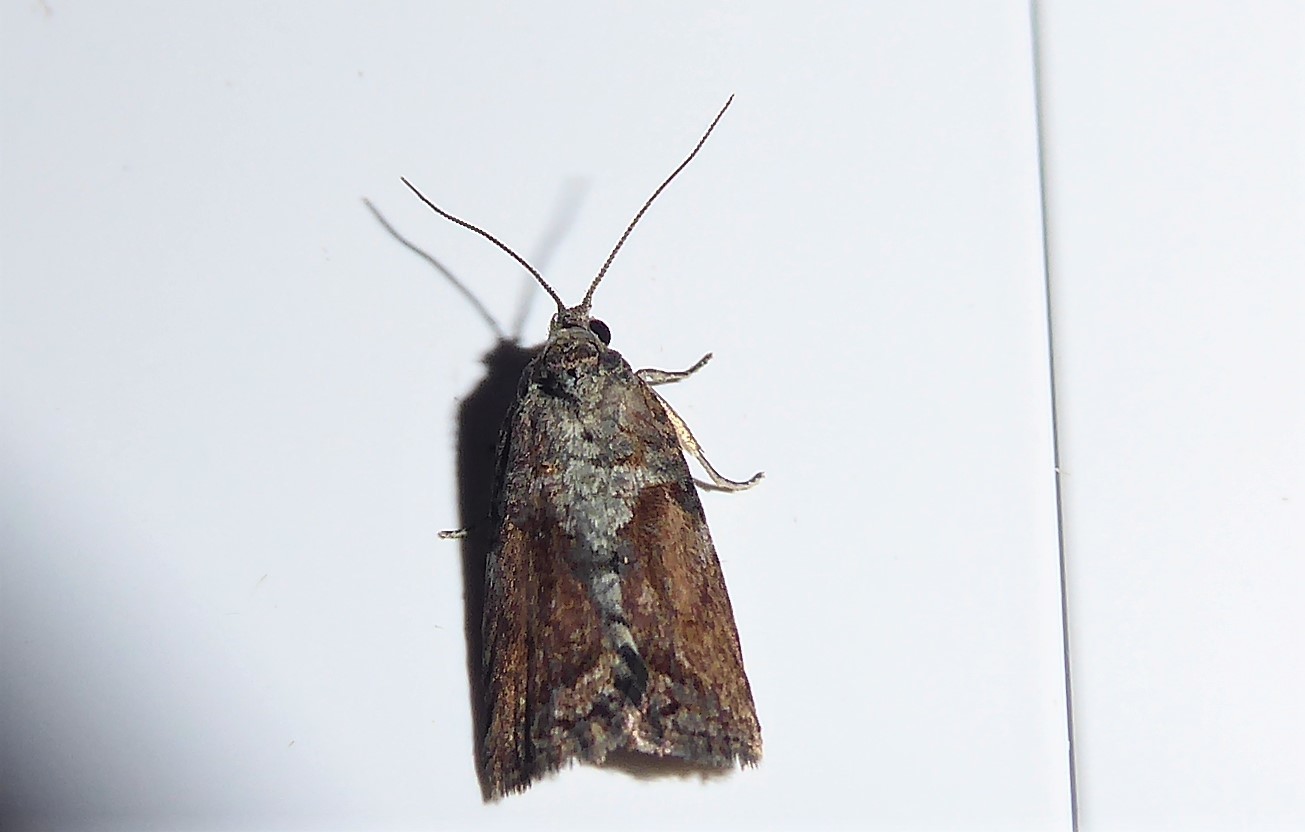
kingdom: Animalia
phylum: Arthropoda
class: Insecta
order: Lepidoptera
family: Tortricidae
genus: Harmologa
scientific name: Harmologa oblongana
